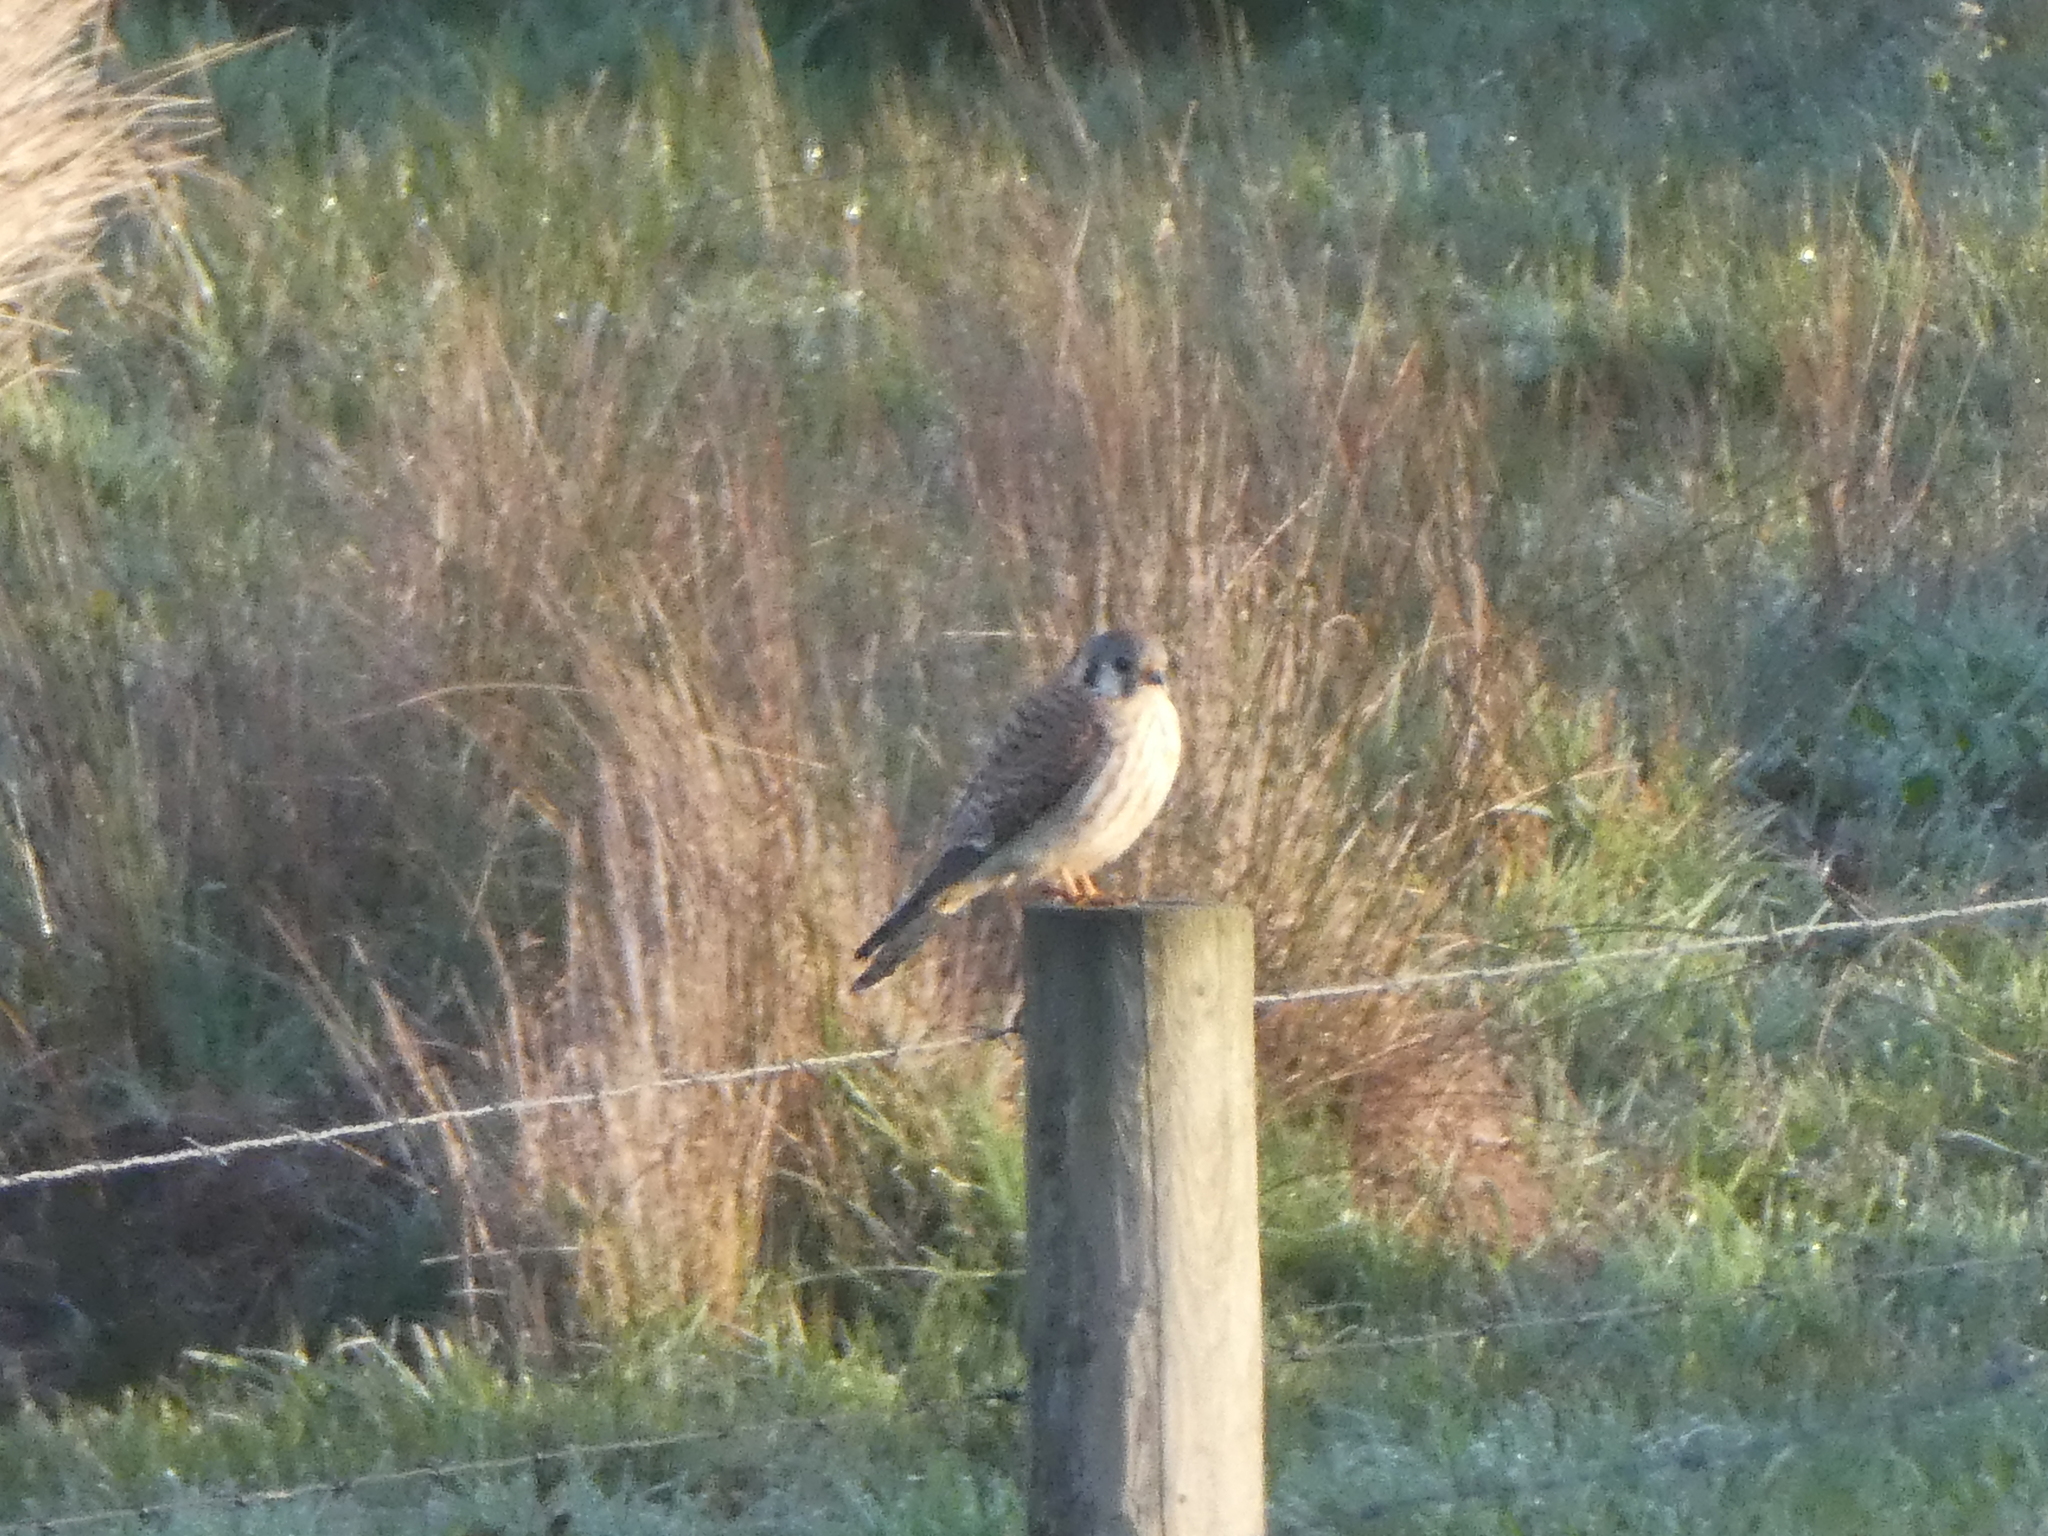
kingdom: Animalia
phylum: Chordata
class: Aves
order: Falconiformes
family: Falconidae
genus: Falco
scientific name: Falco sparverius
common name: American kestrel
